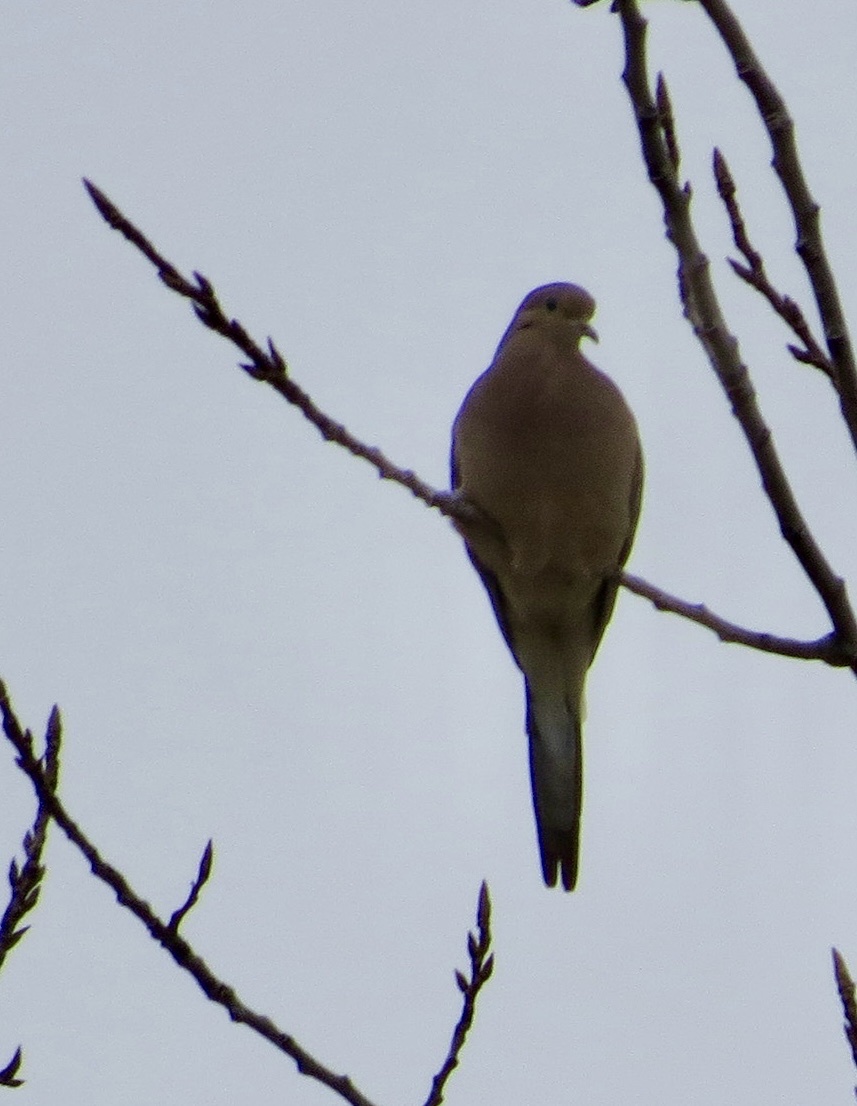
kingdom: Animalia
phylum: Chordata
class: Aves
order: Columbiformes
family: Columbidae
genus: Zenaida
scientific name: Zenaida macroura
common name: Mourning dove
